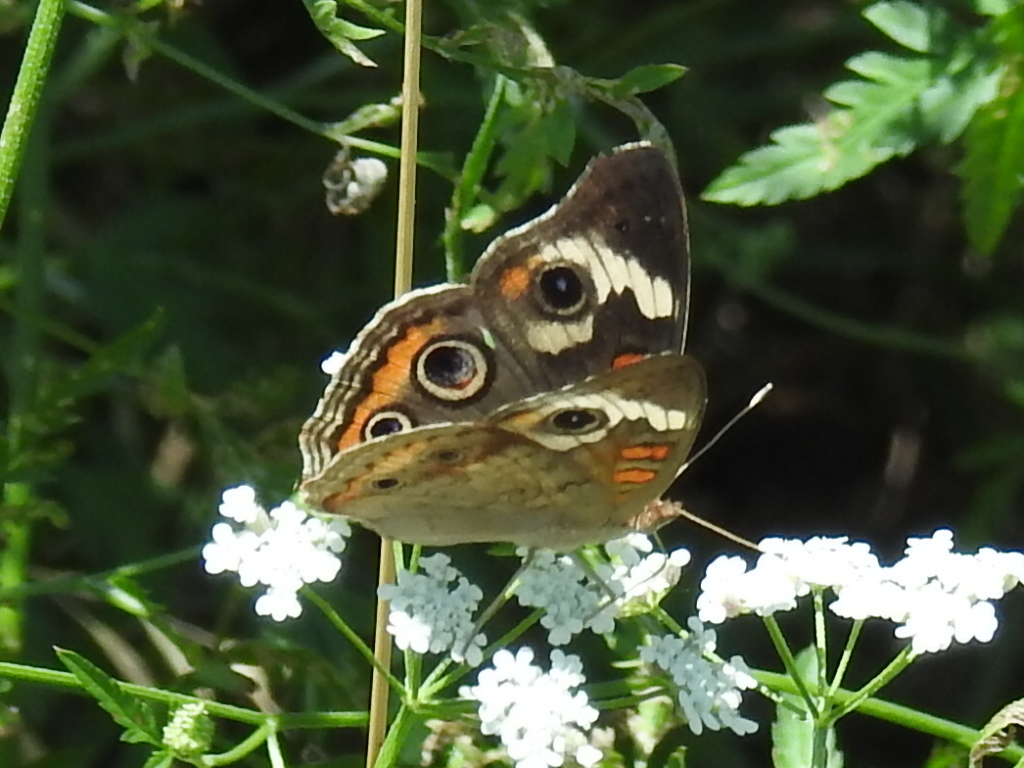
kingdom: Animalia
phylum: Arthropoda
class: Insecta
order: Lepidoptera
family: Nymphalidae
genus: Junonia
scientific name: Junonia coenia
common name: Common buckeye
